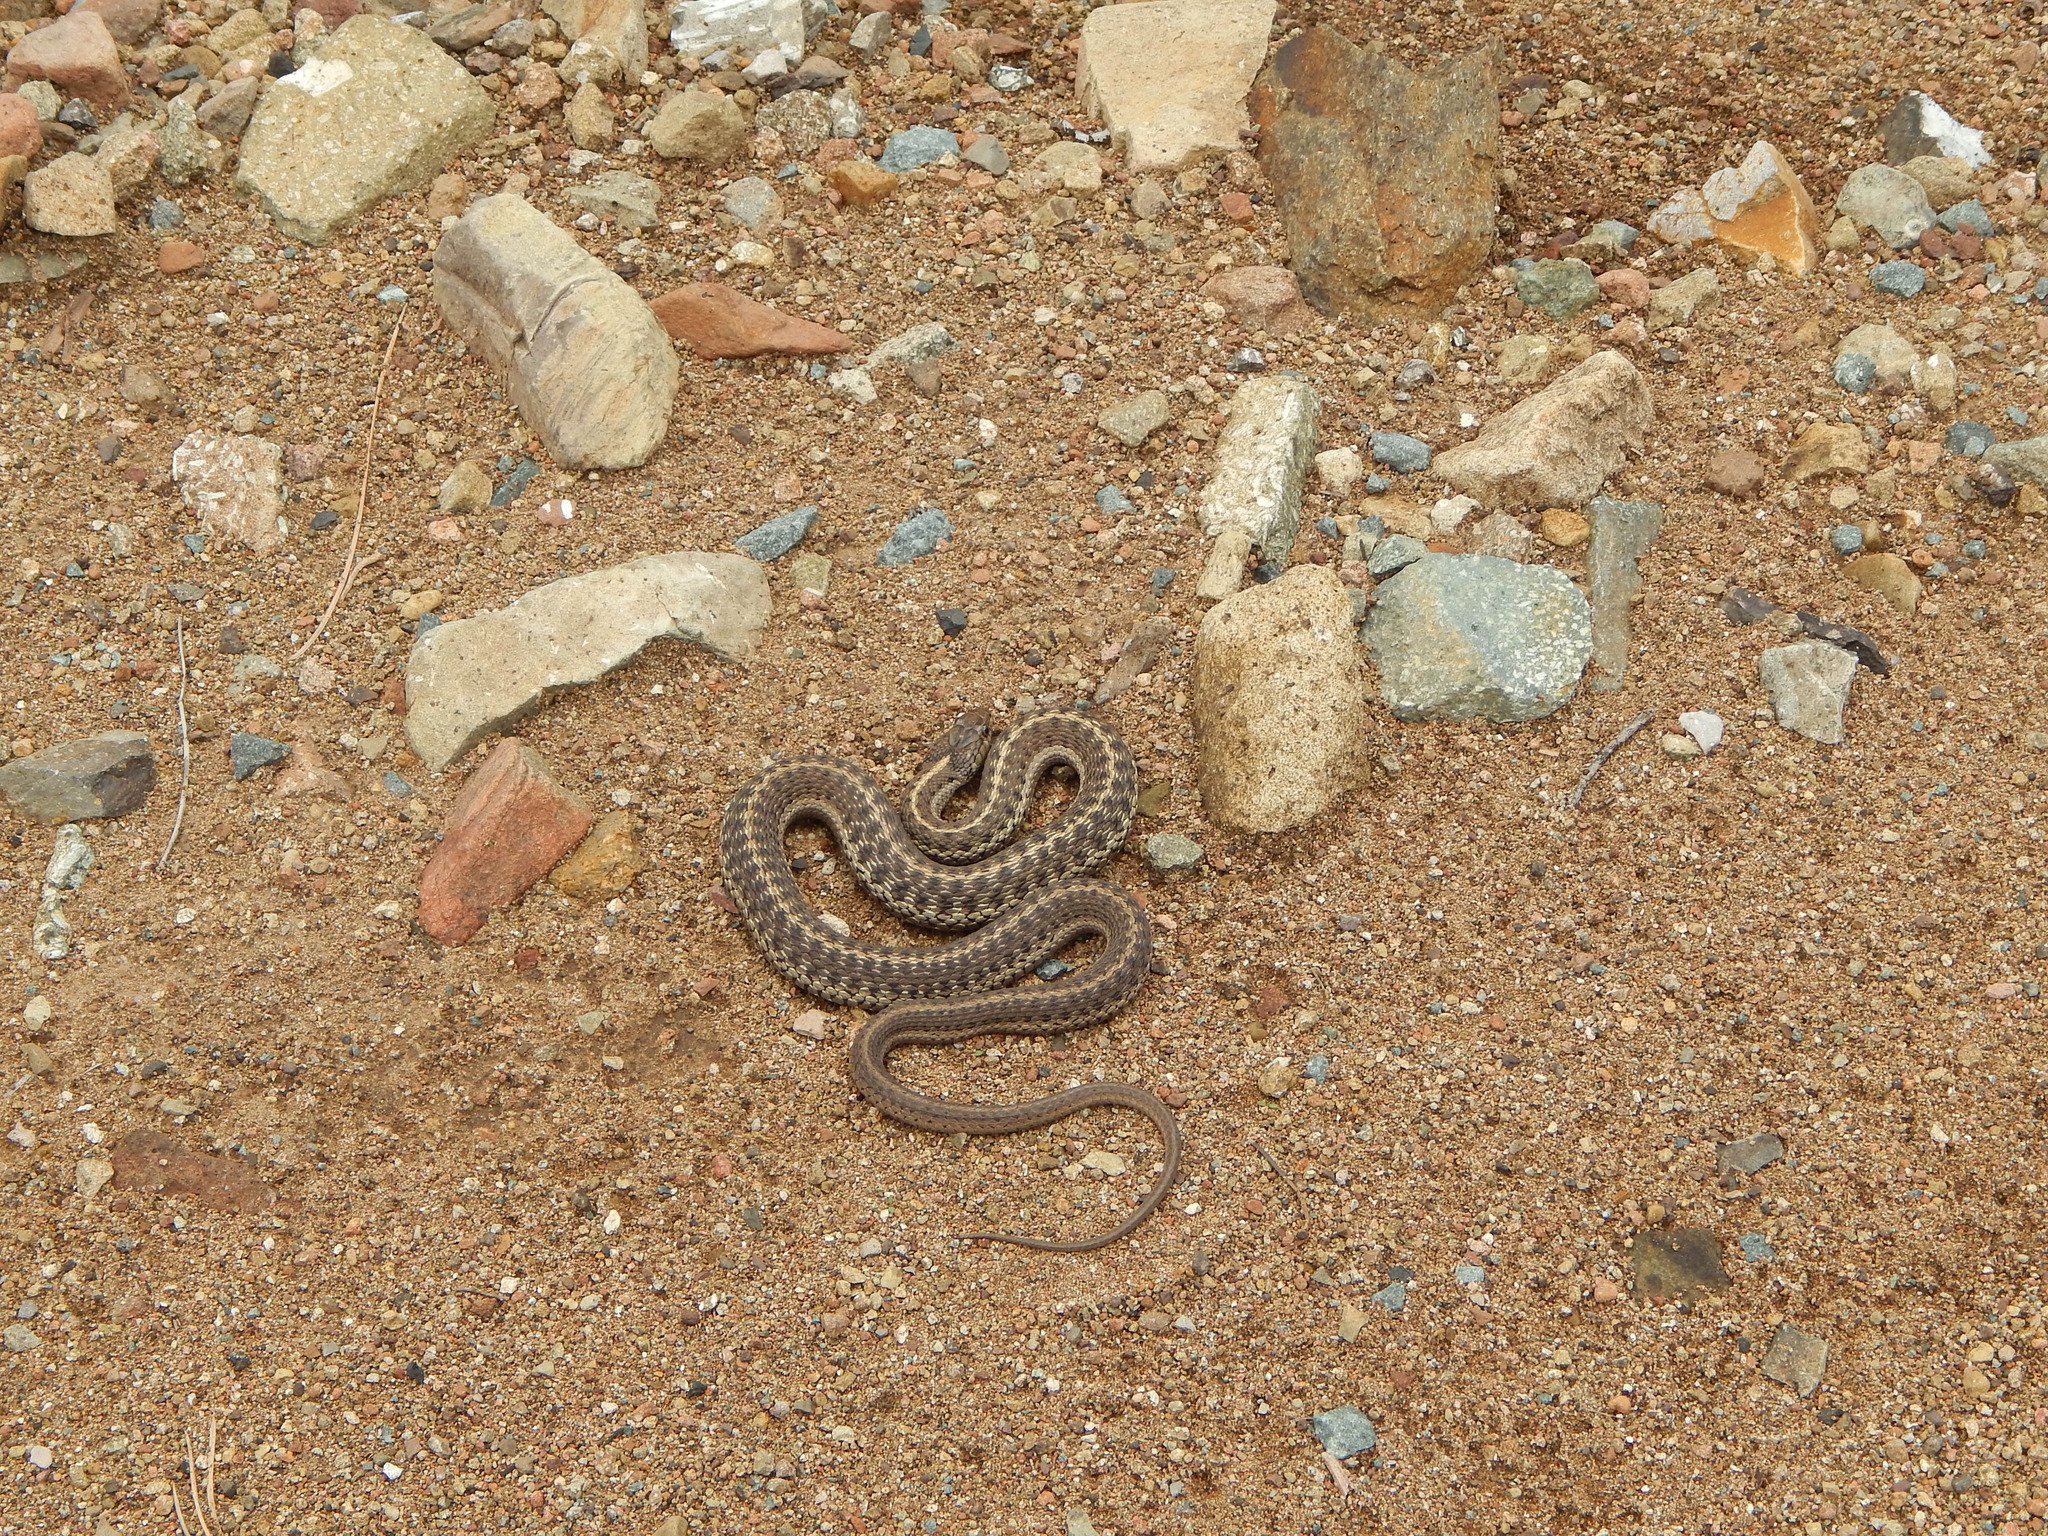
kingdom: Animalia
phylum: Chordata
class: Squamata
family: Colubridae
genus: Thamnophis
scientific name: Thamnophis elegans
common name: Western terrestrial garter snake
